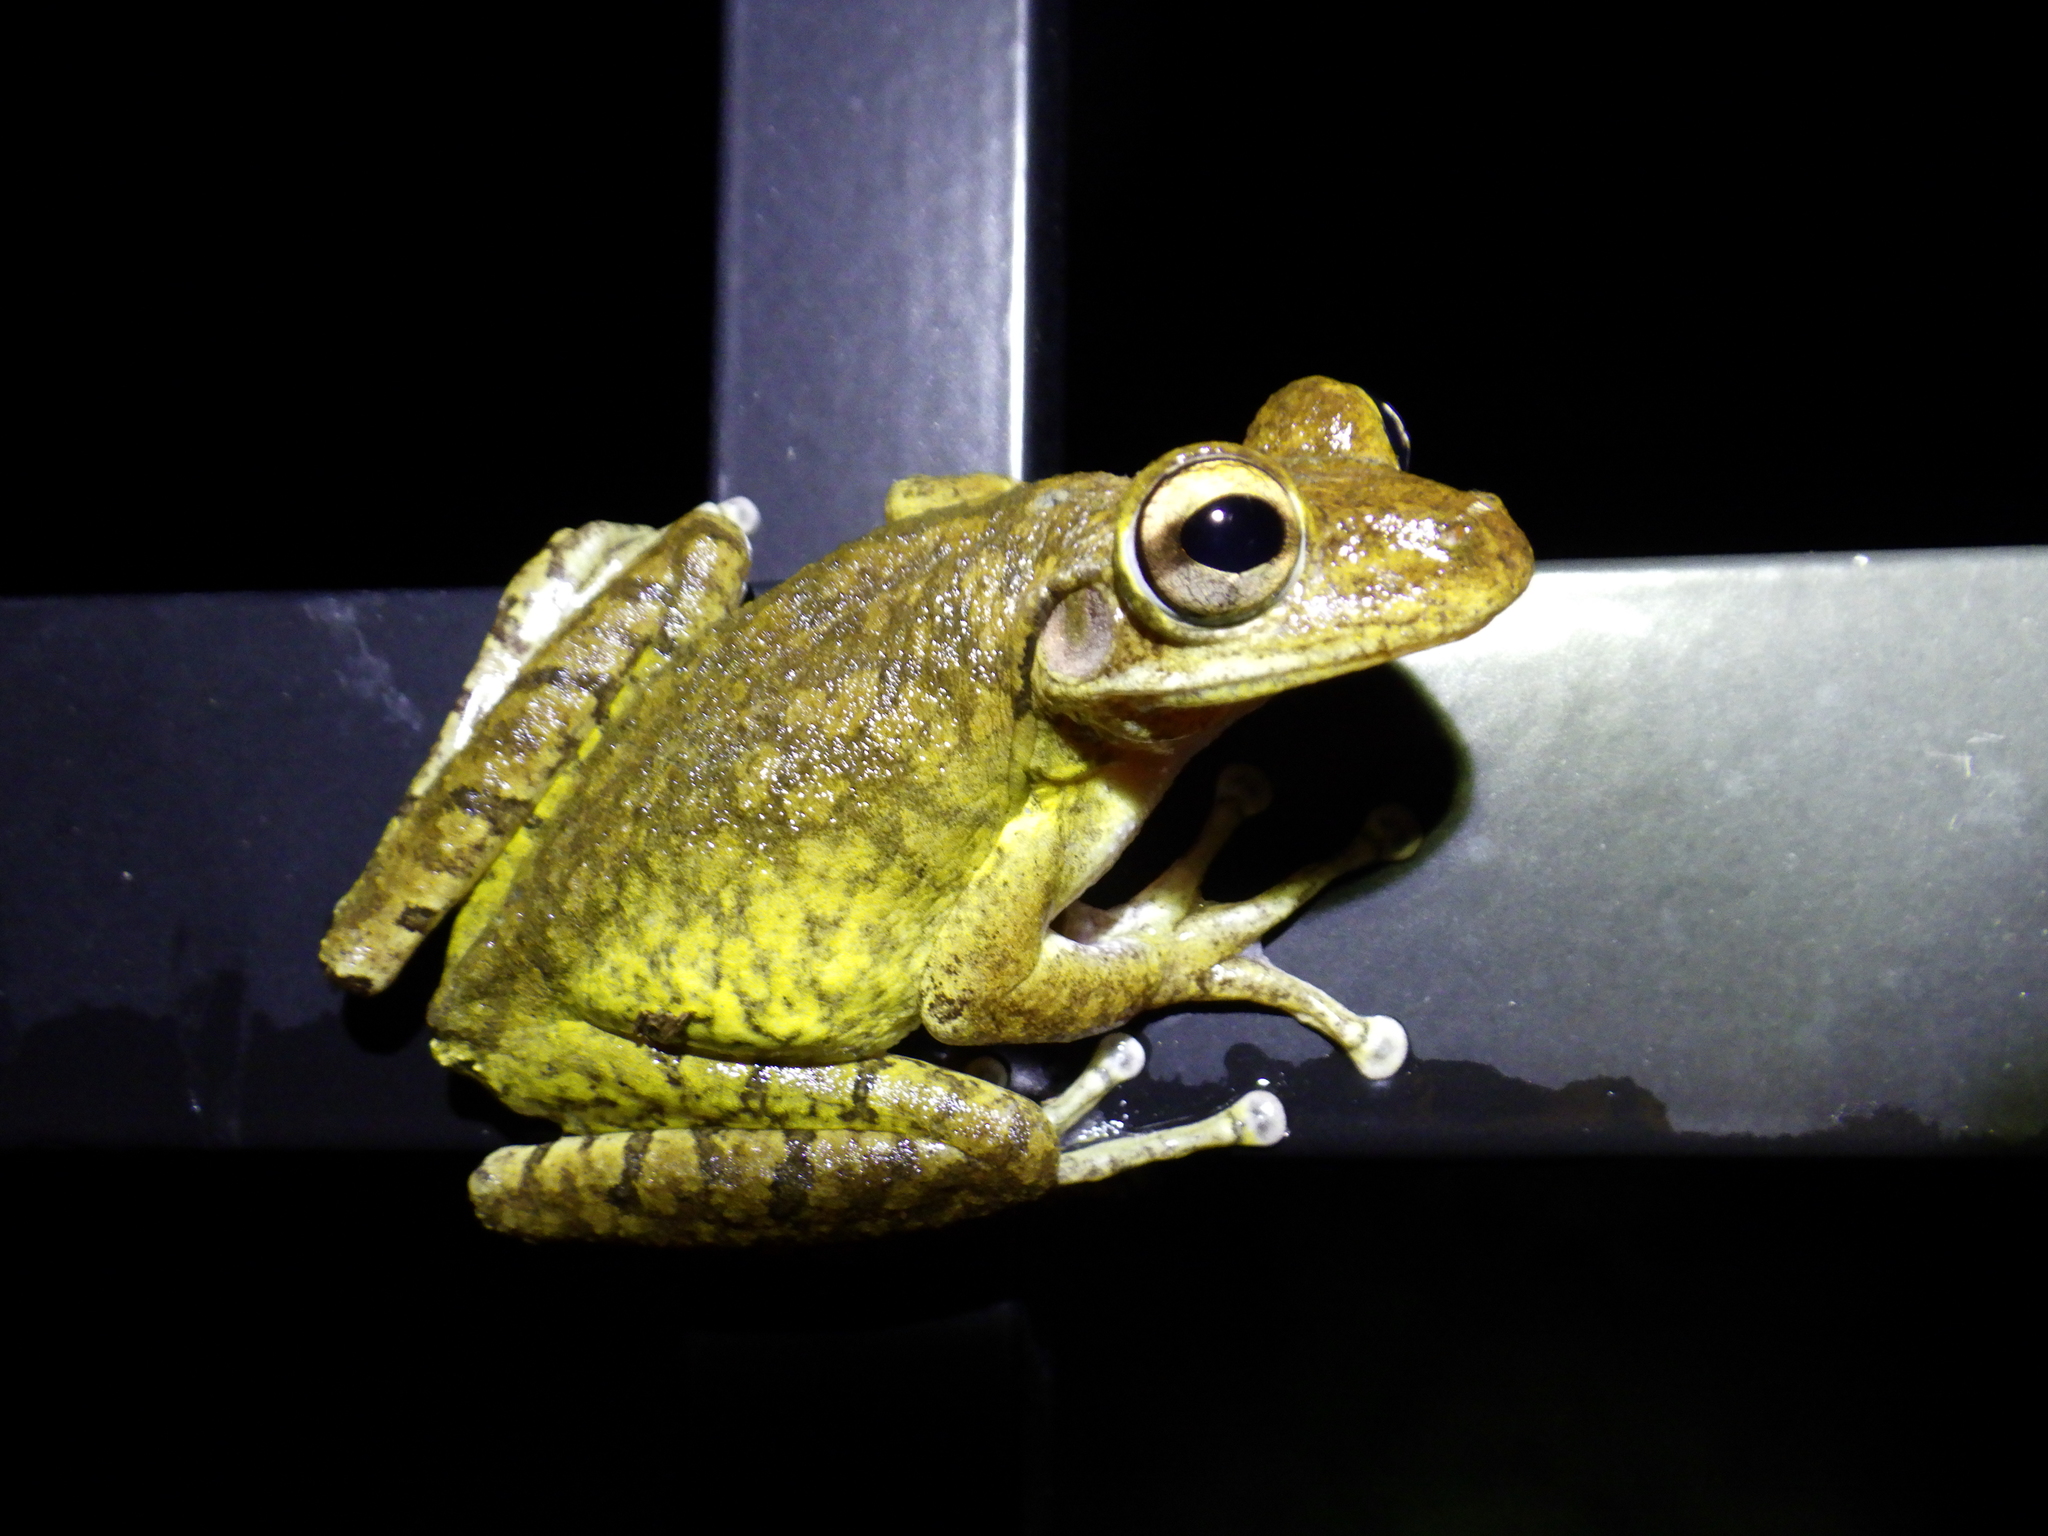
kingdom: Animalia
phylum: Chordata
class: Amphibia
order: Anura
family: Hylidae
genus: Osteopilus
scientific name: Osteopilus septentrionalis
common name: Cuban treefrog
